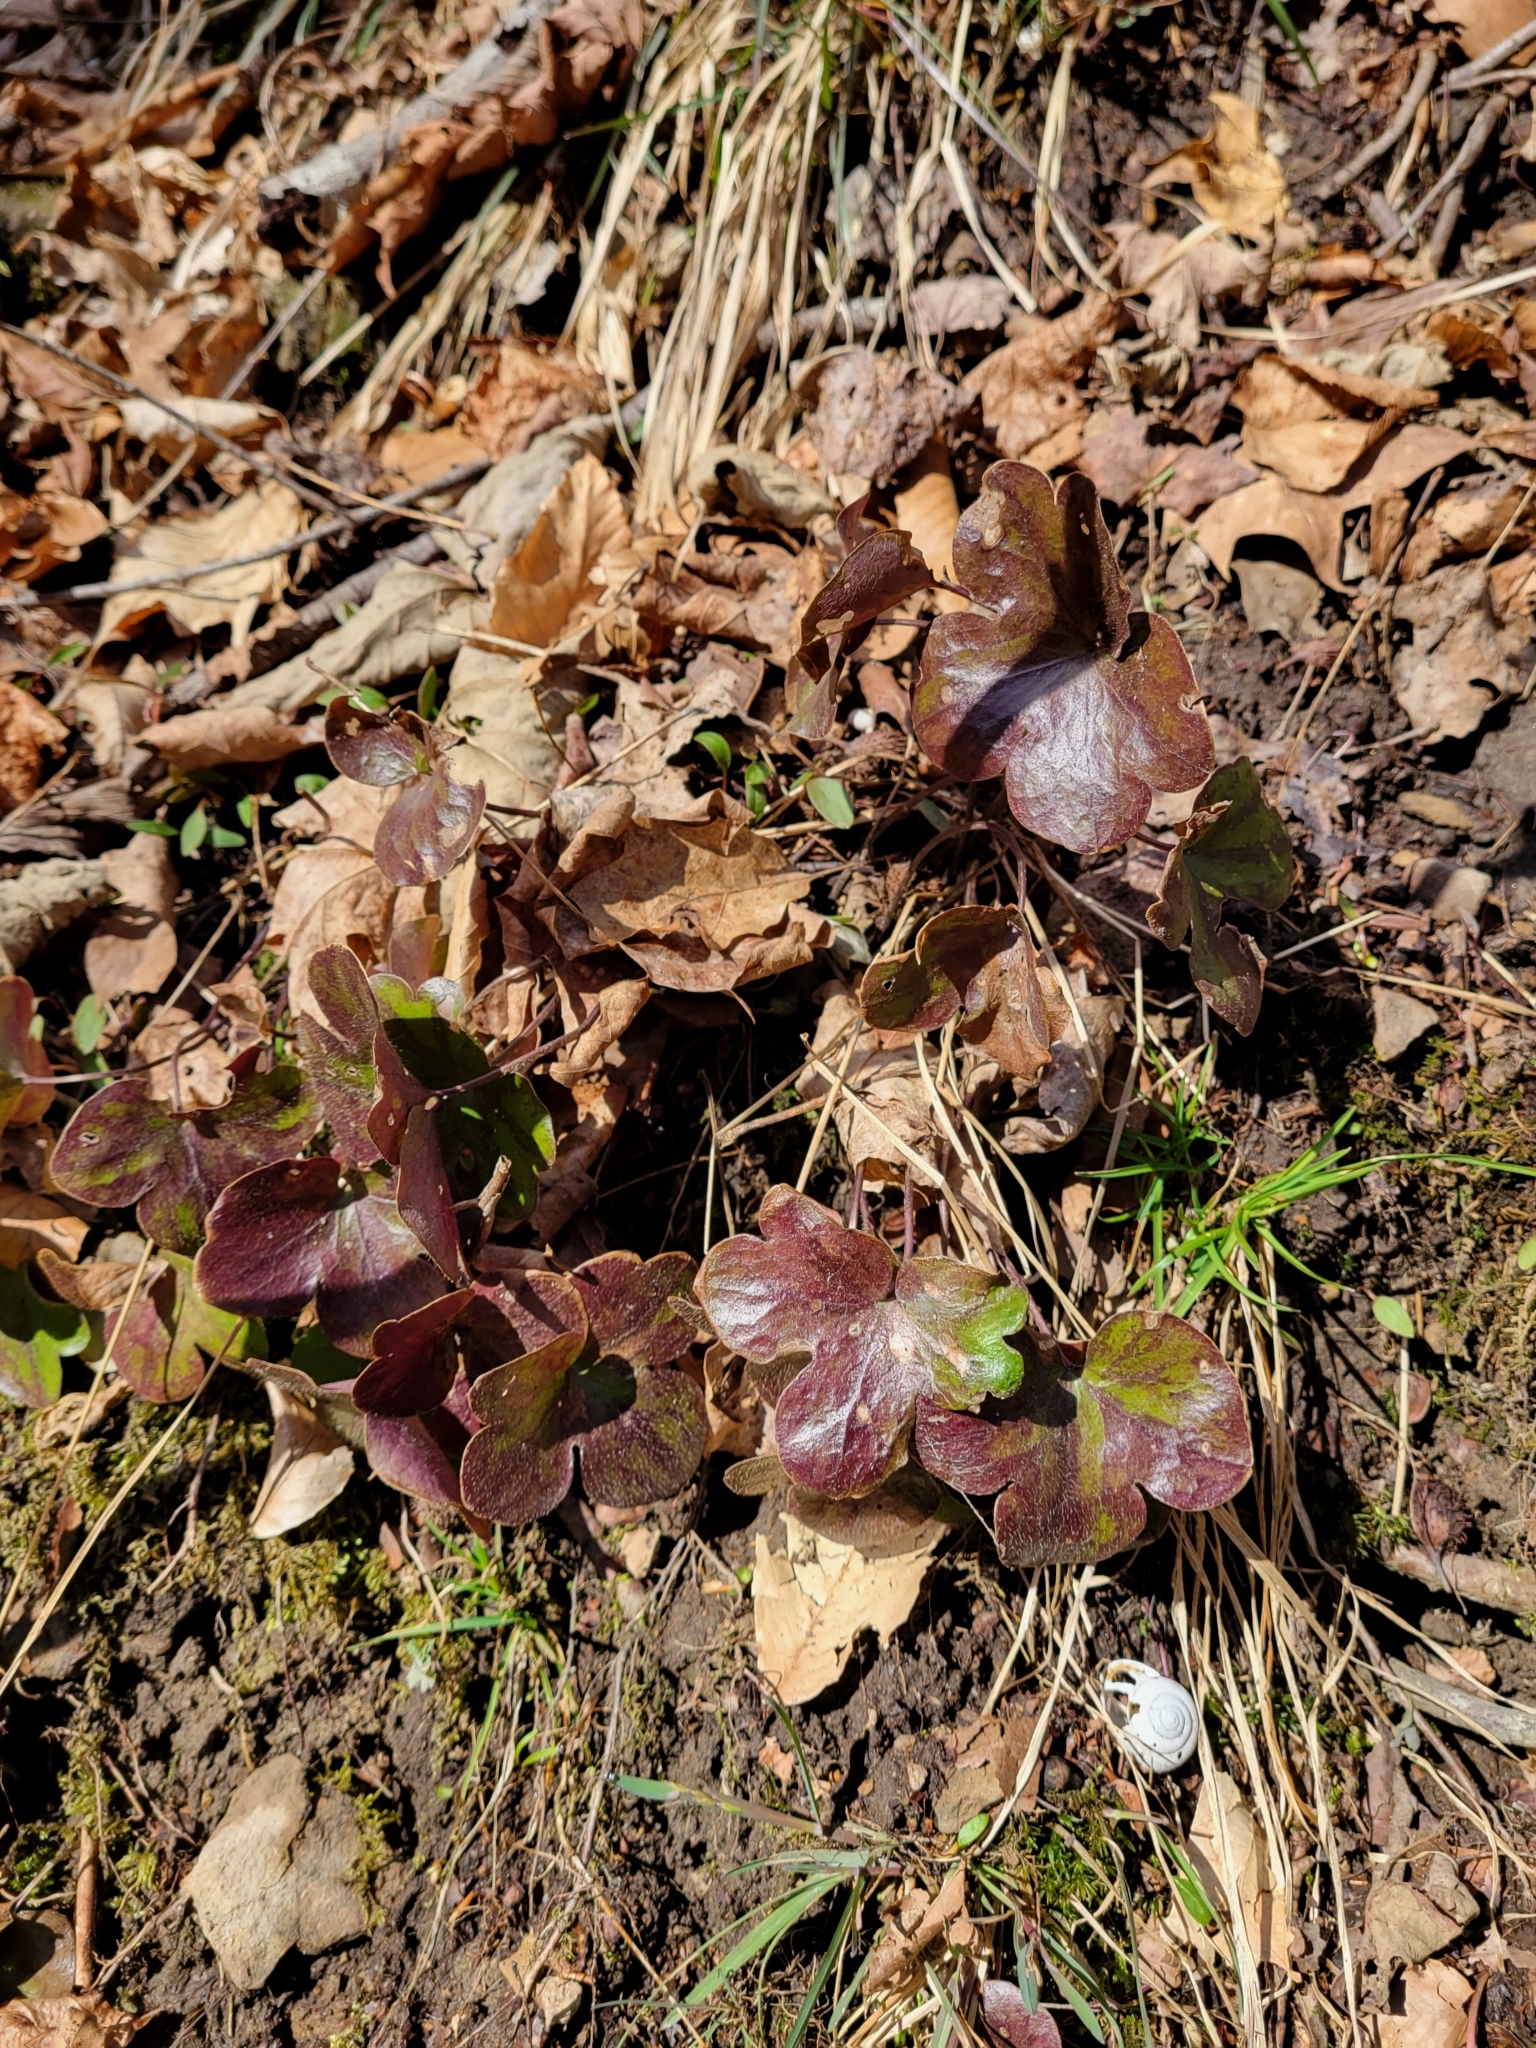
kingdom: Plantae
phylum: Tracheophyta
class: Magnoliopsida
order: Ranunculales
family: Ranunculaceae
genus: Hepatica
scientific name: Hepatica americana
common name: American hepatica
